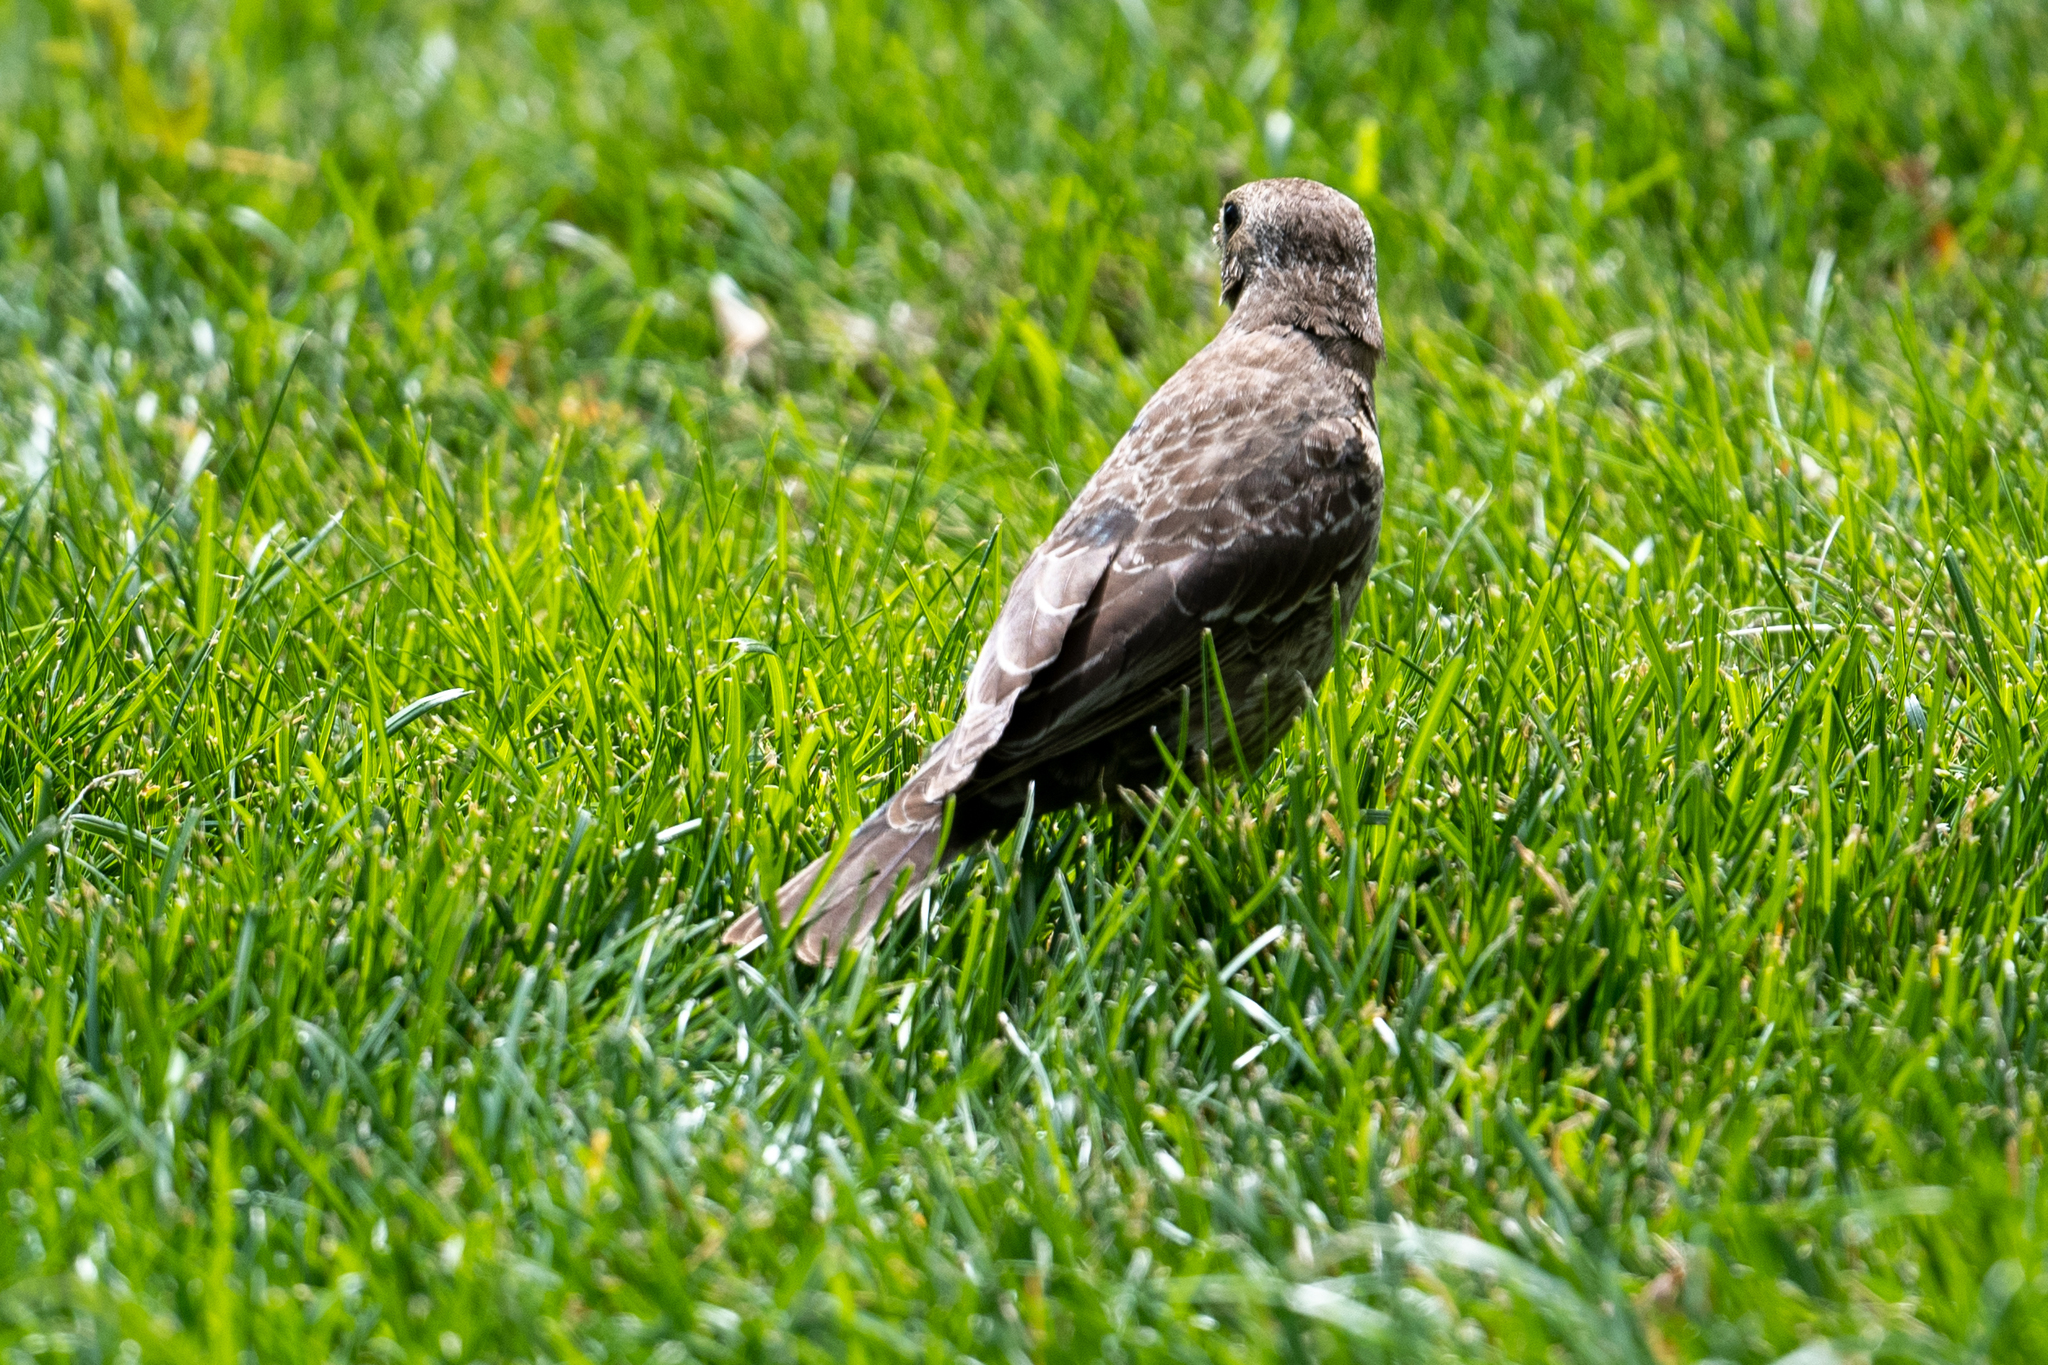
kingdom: Animalia
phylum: Chordata
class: Aves
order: Passeriformes
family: Icteridae
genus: Molothrus
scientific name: Molothrus ater
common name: Brown-headed cowbird
